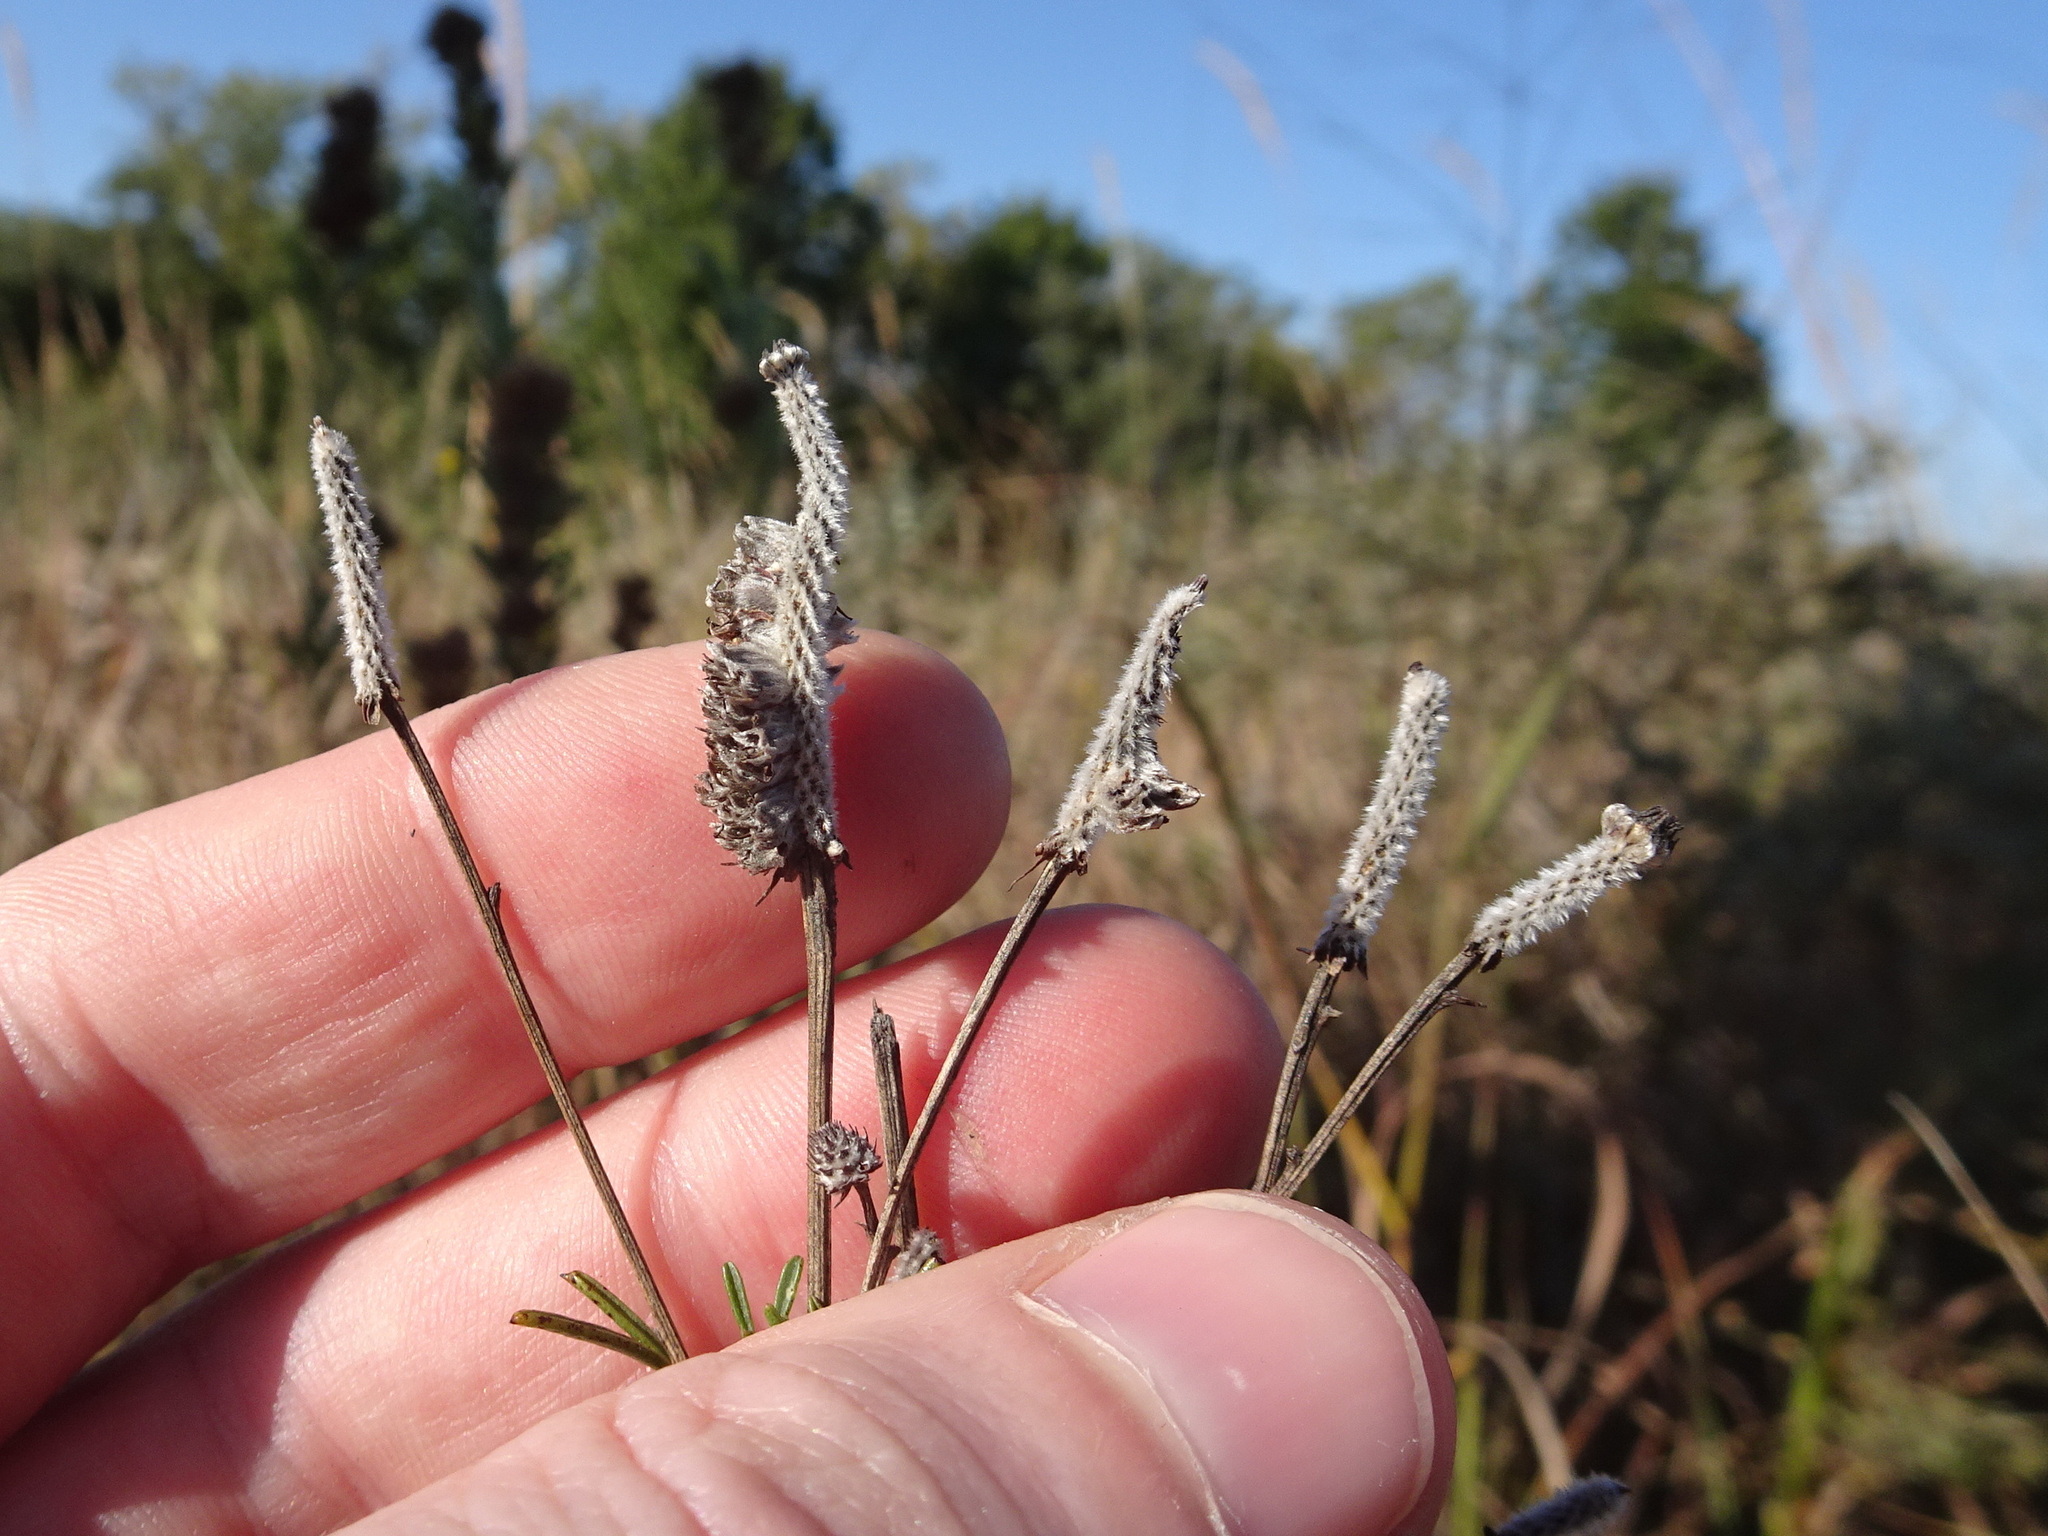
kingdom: Plantae
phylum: Tracheophyta
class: Magnoliopsida
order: Fabales
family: Fabaceae
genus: Dalea
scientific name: Dalea purpurea
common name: Purple prairie-clover
